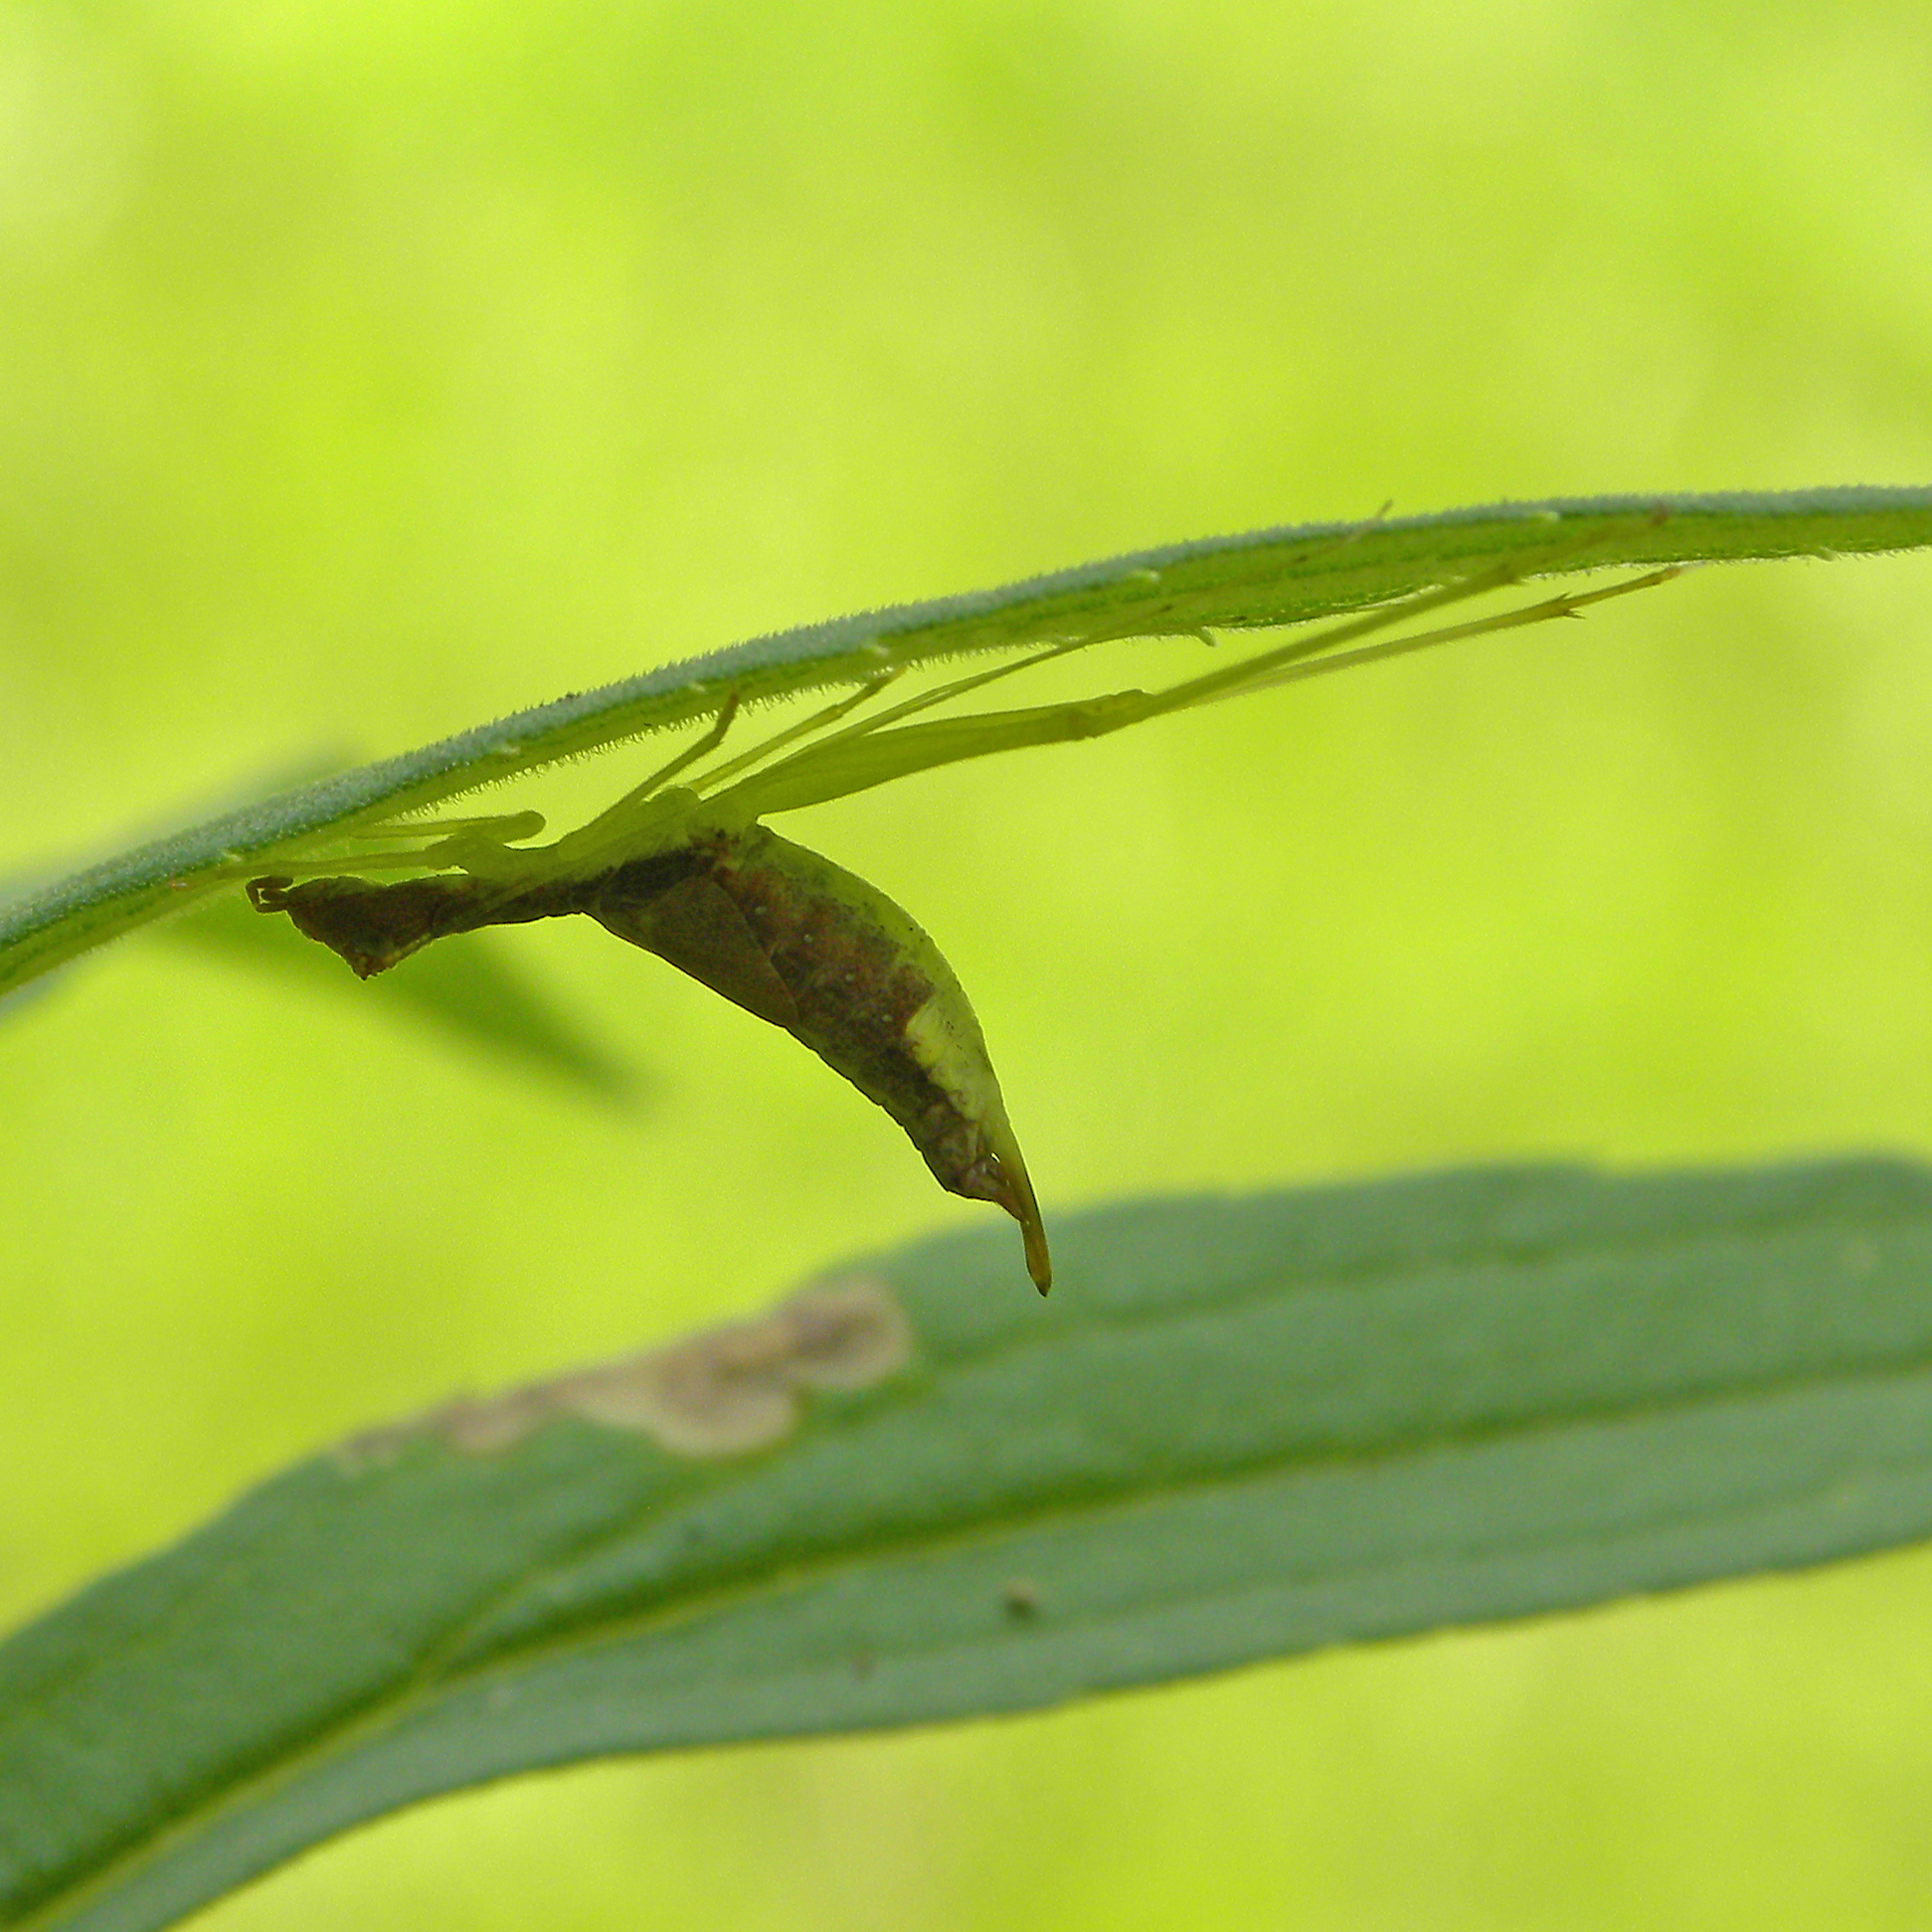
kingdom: Animalia
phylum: Arthropoda
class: Insecta
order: Orthoptera
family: Gryllidae
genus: Neoxabea
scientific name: Neoxabea bipunctata
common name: Two-spotted tree cricket
